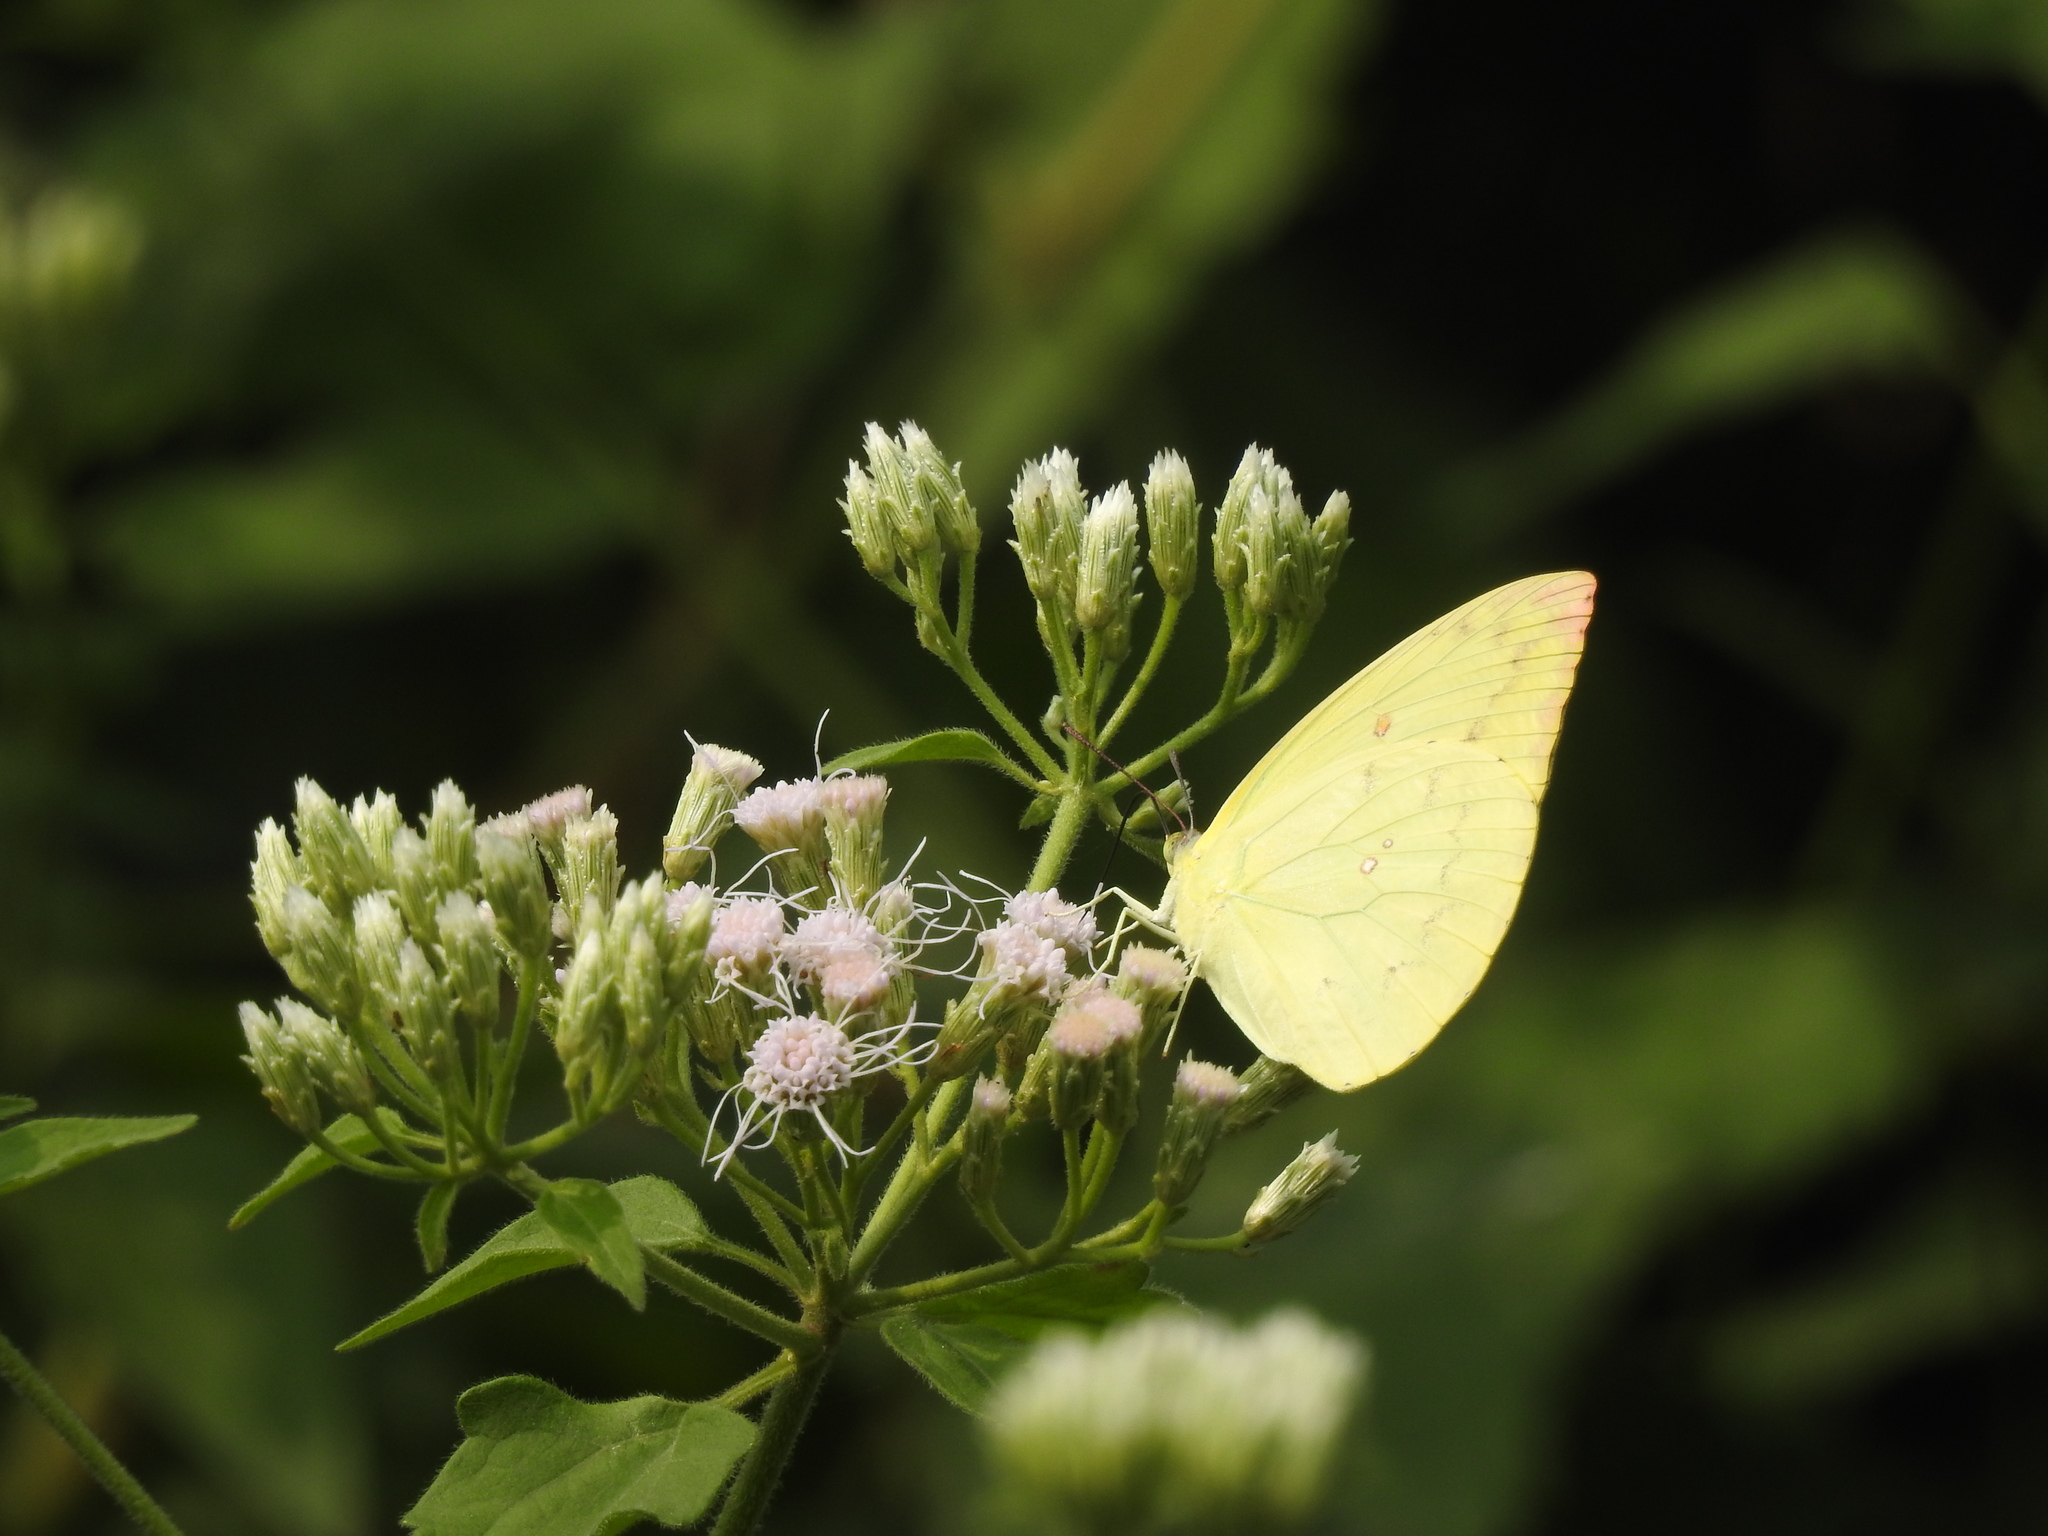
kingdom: Animalia
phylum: Arthropoda
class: Insecta
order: Lepidoptera
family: Pieridae
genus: Catopsilia
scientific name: Catopsilia pomona
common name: Common emigrant
